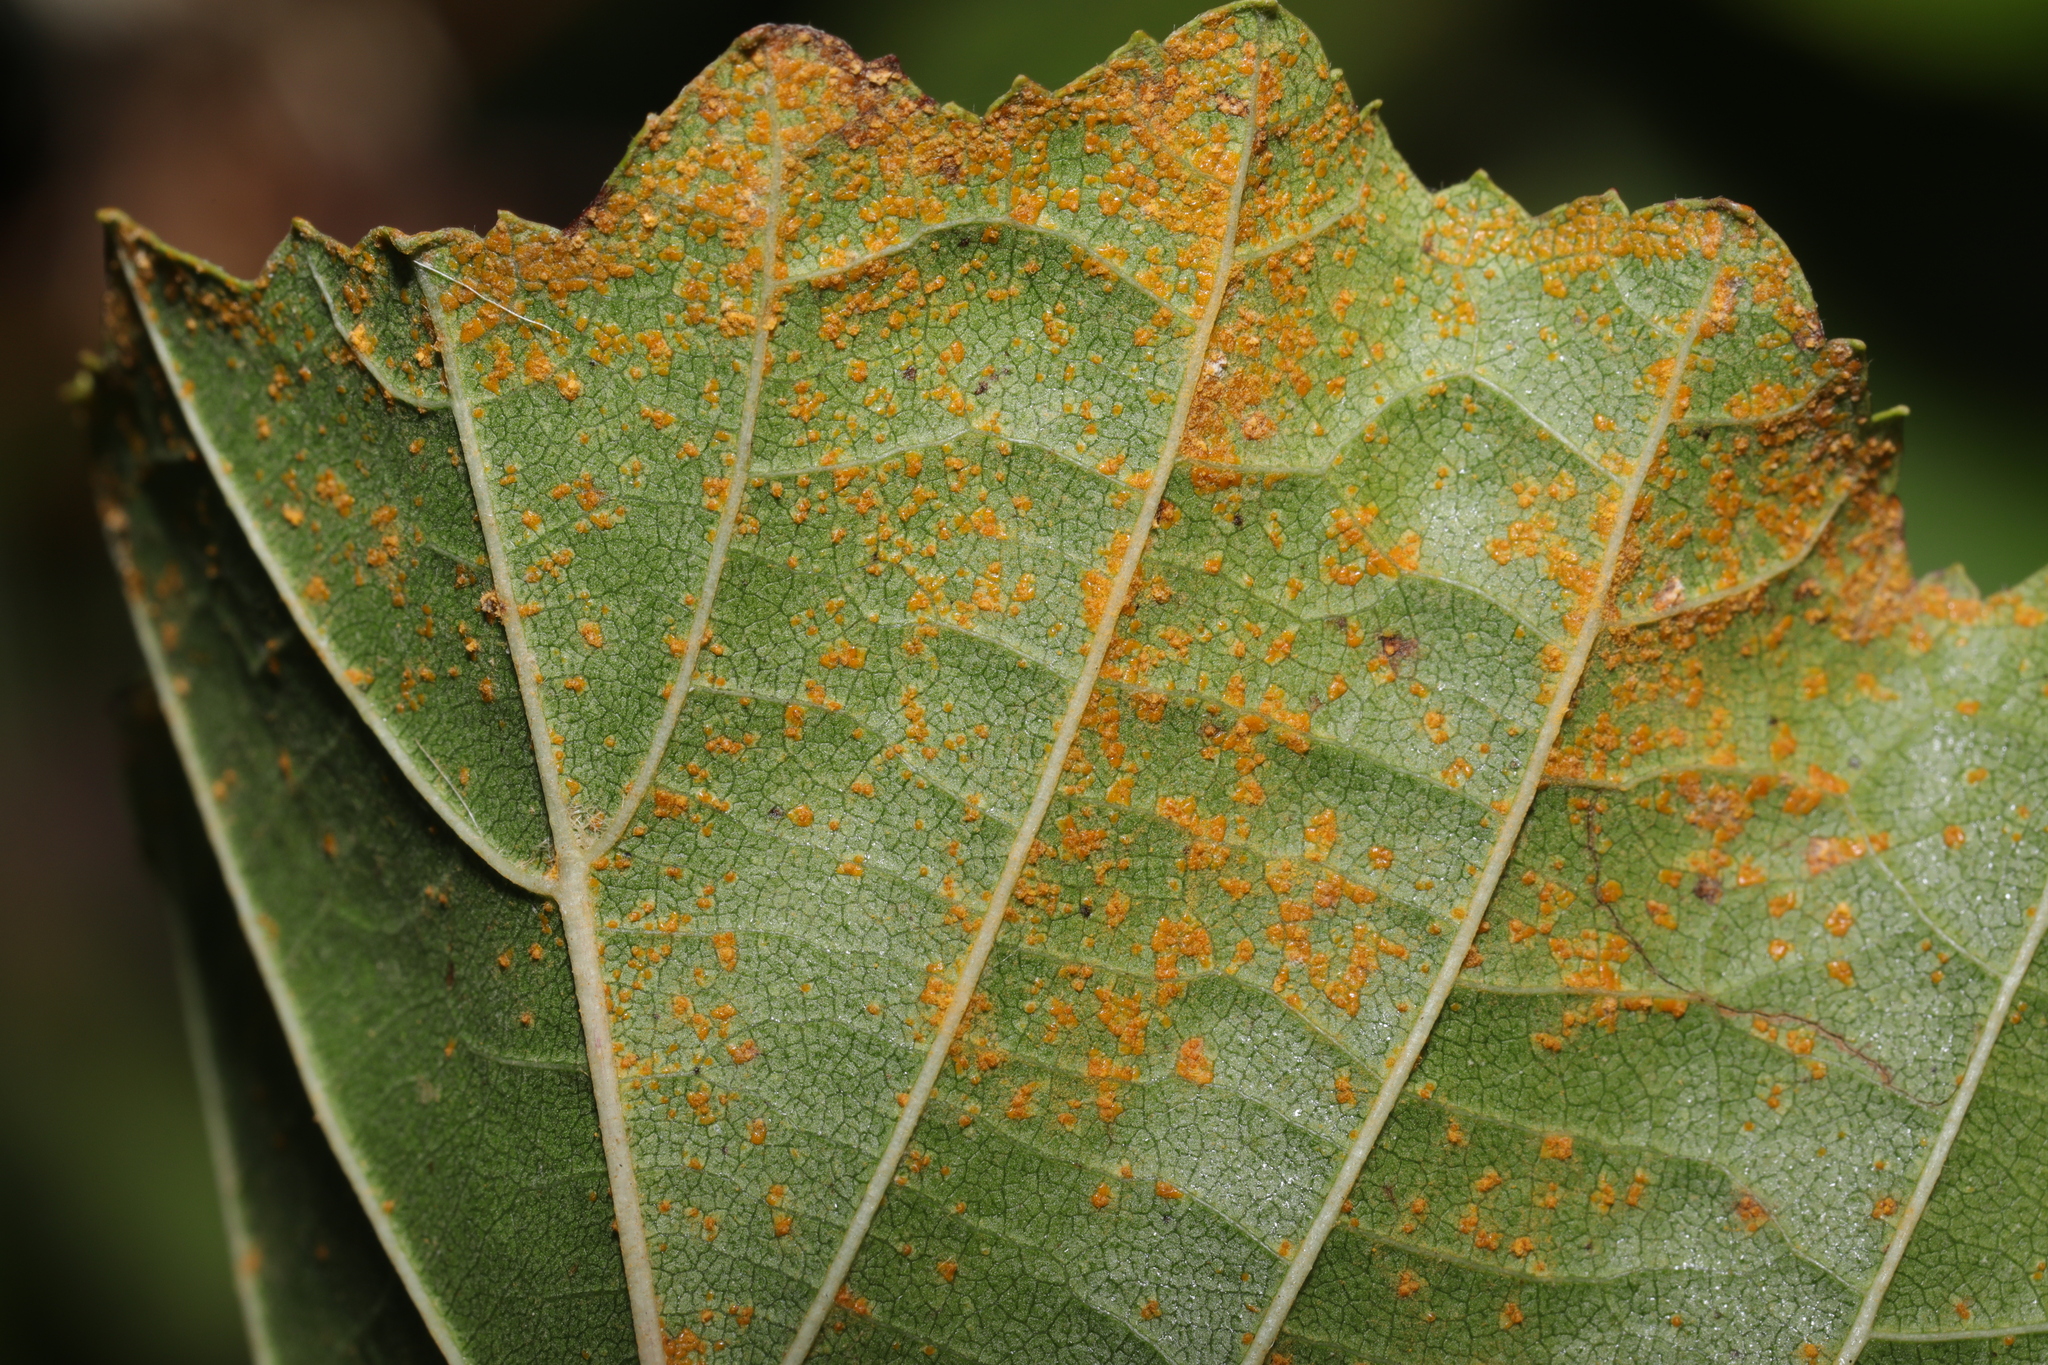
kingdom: Fungi
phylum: Basidiomycota
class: Pucciniomycetes
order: Pucciniales
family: Pucciniastraceae
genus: Melampsoridium
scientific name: Melampsoridium
